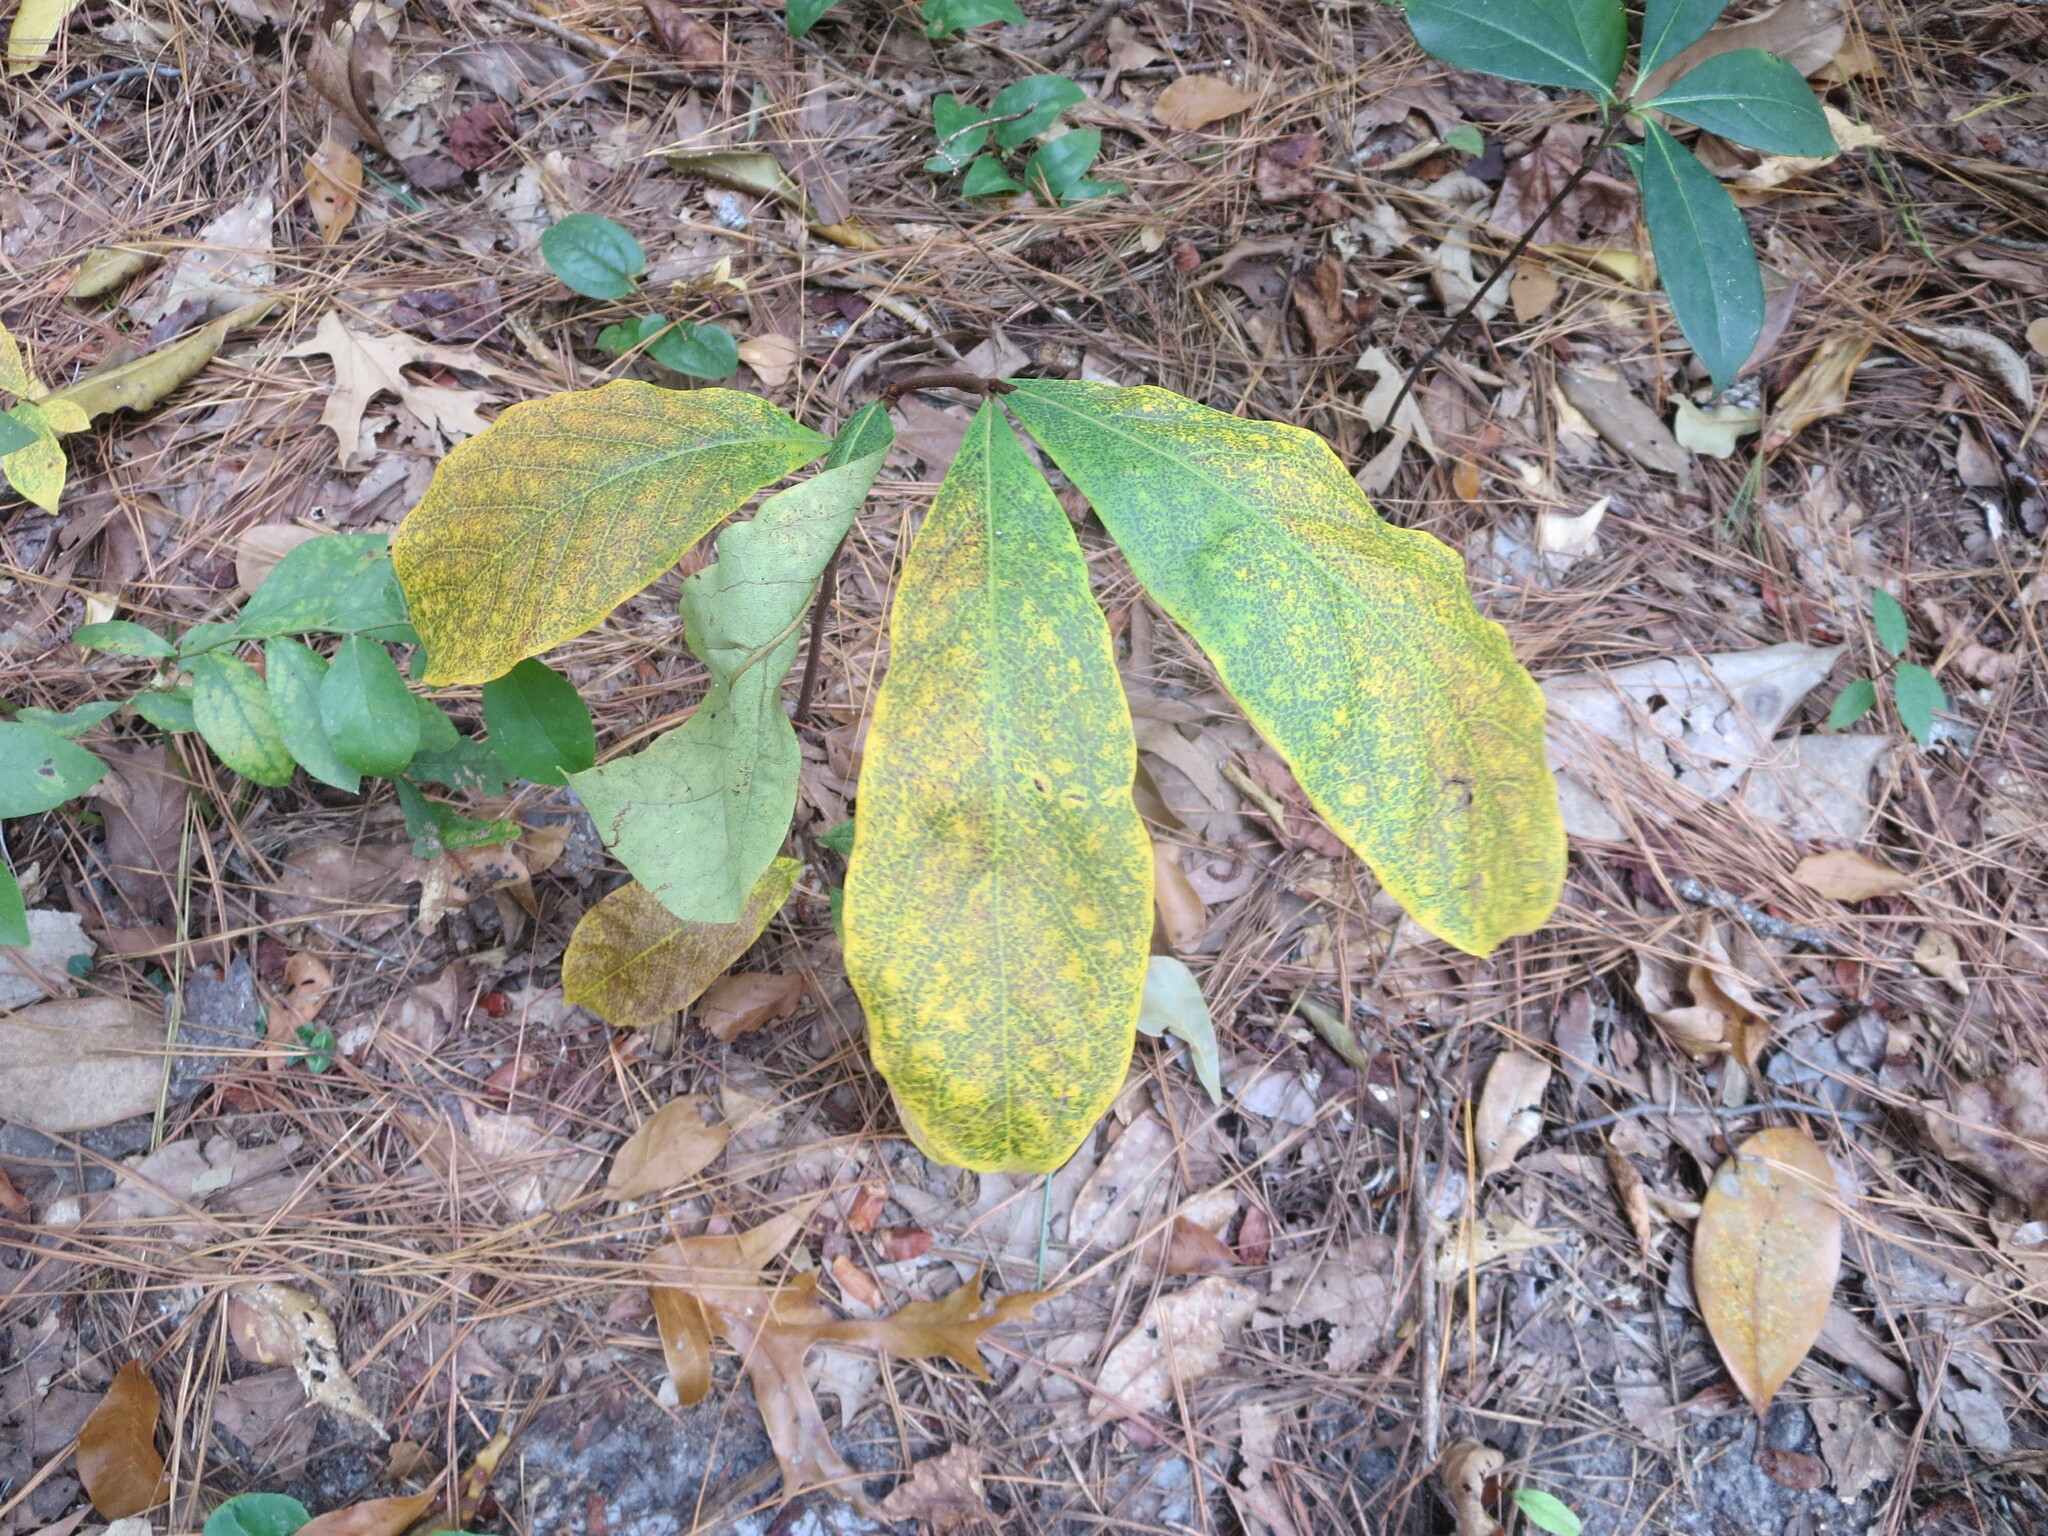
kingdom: Plantae
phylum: Tracheophyta
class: Magnoliopsida
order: Magnoliales
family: Annonaceae
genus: Asimina
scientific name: Asimina parviflora
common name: Dwarf pawpaw
